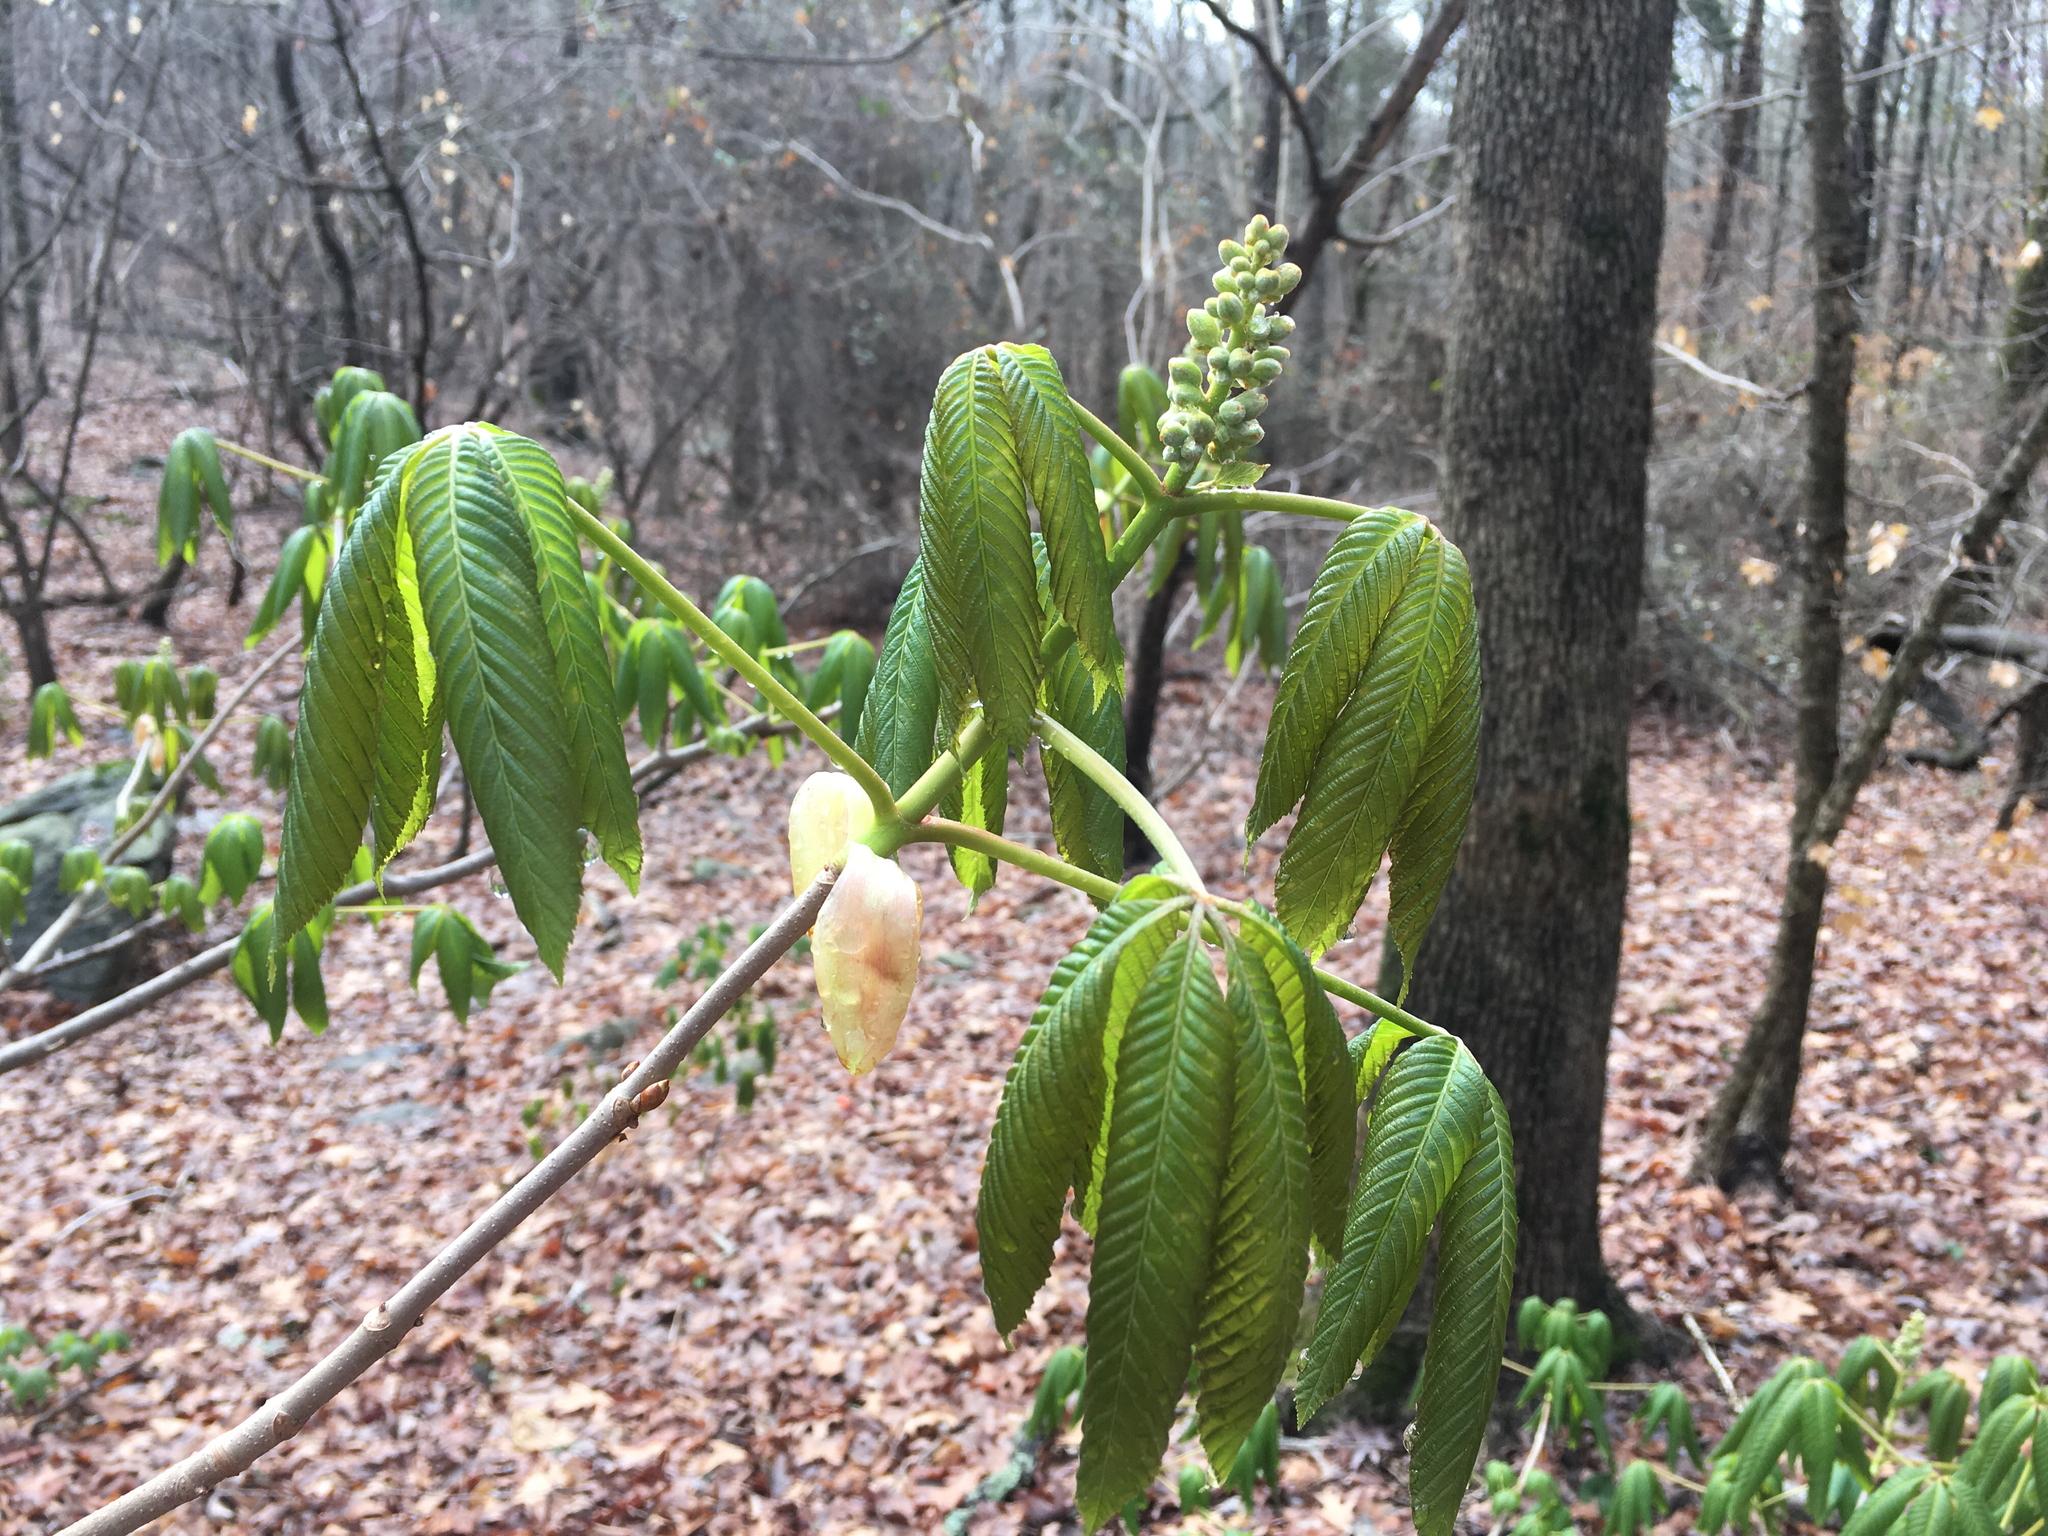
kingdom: Plantae
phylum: Tracheophyta
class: Magnoliopsida
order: Sapindales
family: Sapindaceae
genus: Aesculus
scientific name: Aesculus sylvatica
